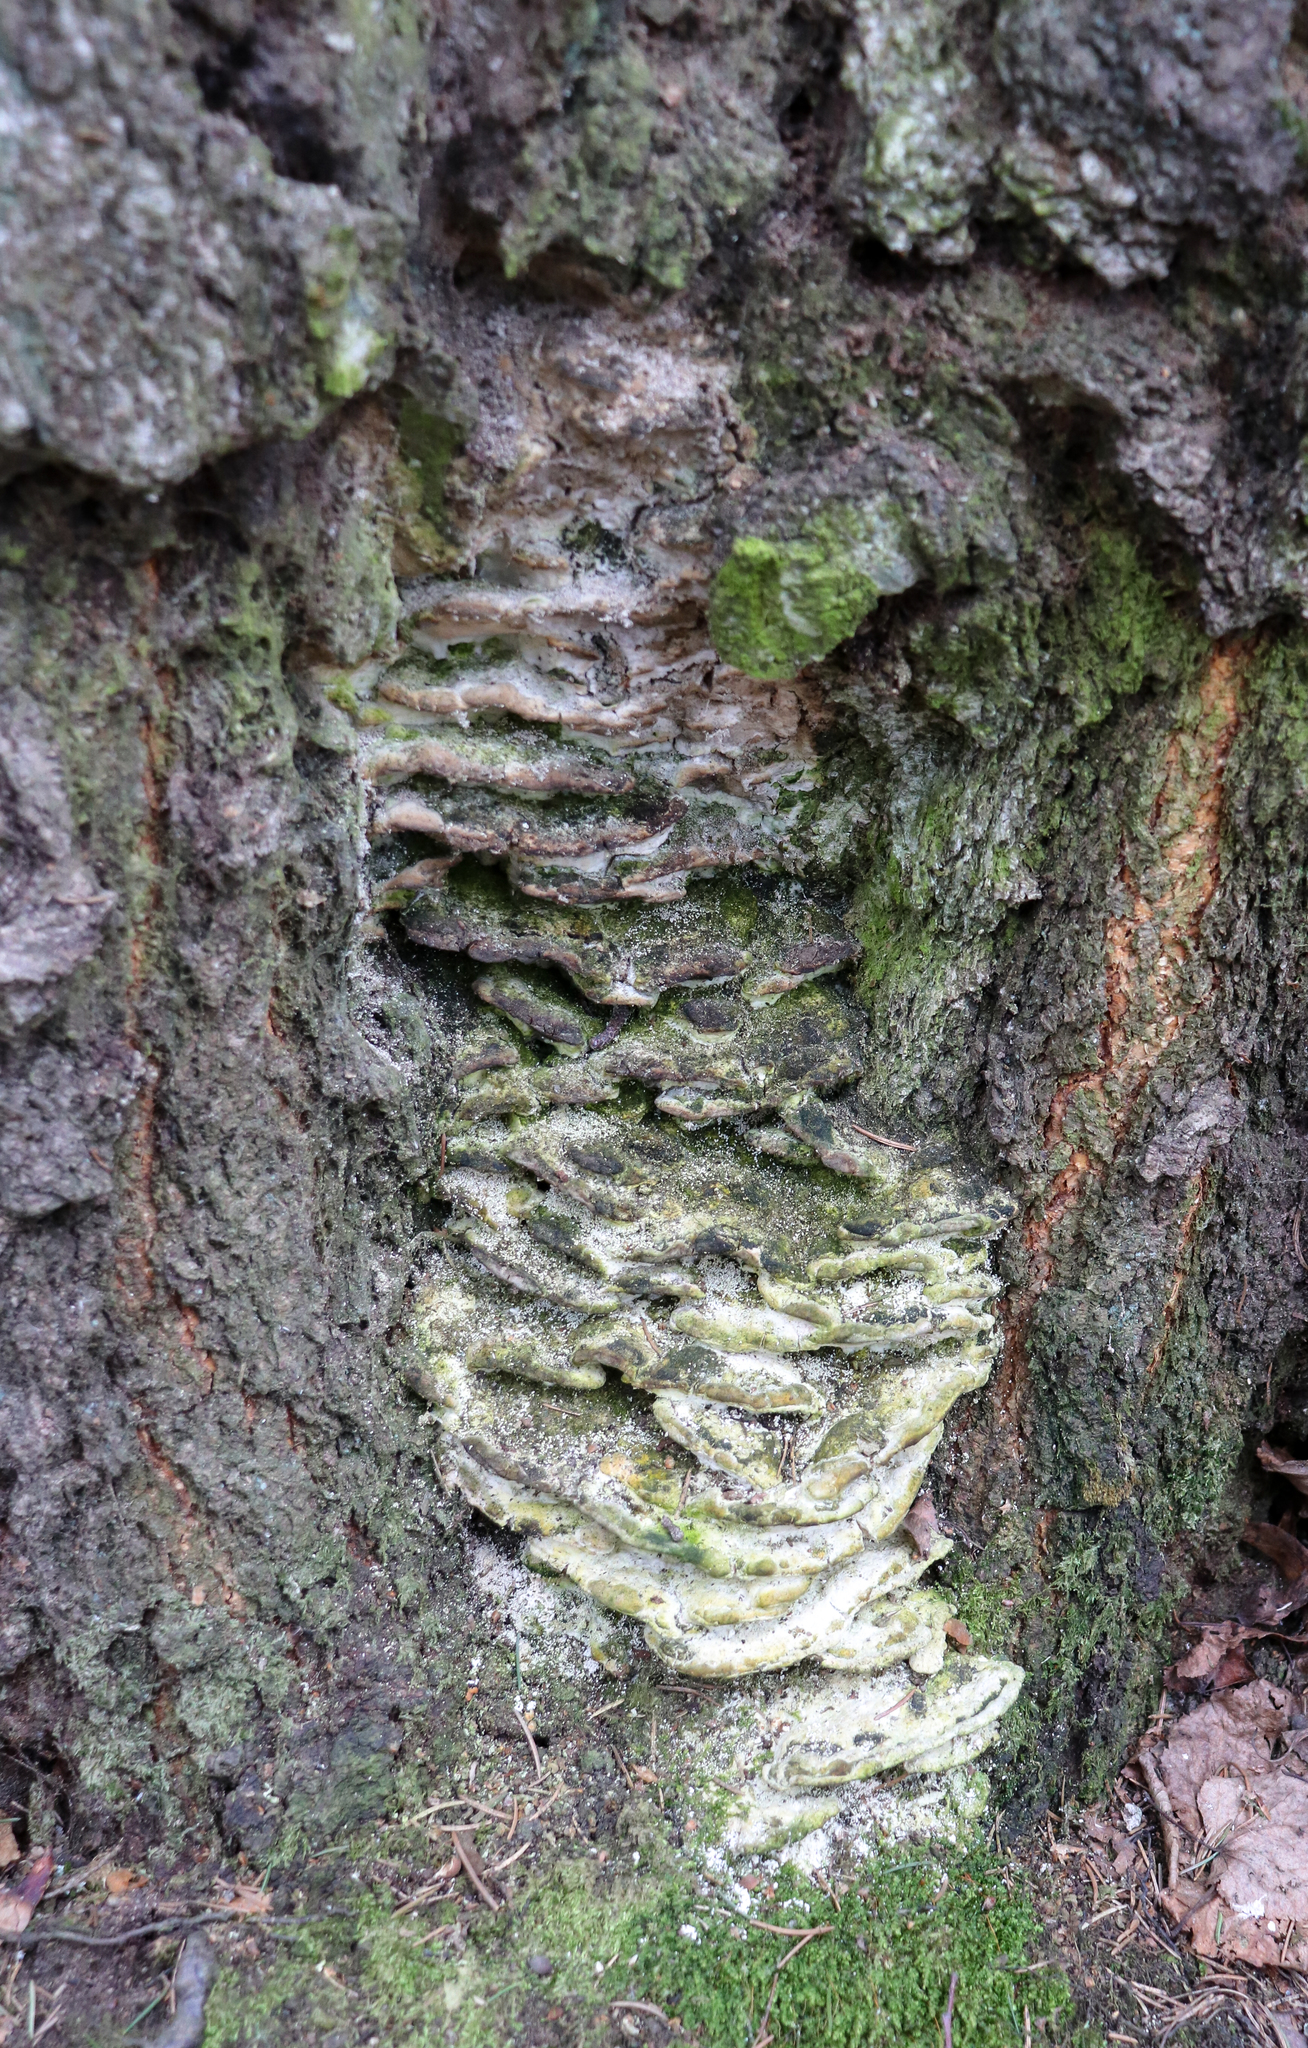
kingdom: Fungi
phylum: Basidiomycota
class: Agaricomycetes
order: Hymenochaetales
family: Oxyporaceae
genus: Oxyporus
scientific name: Oxyporus populinus
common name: Poplar bracket
